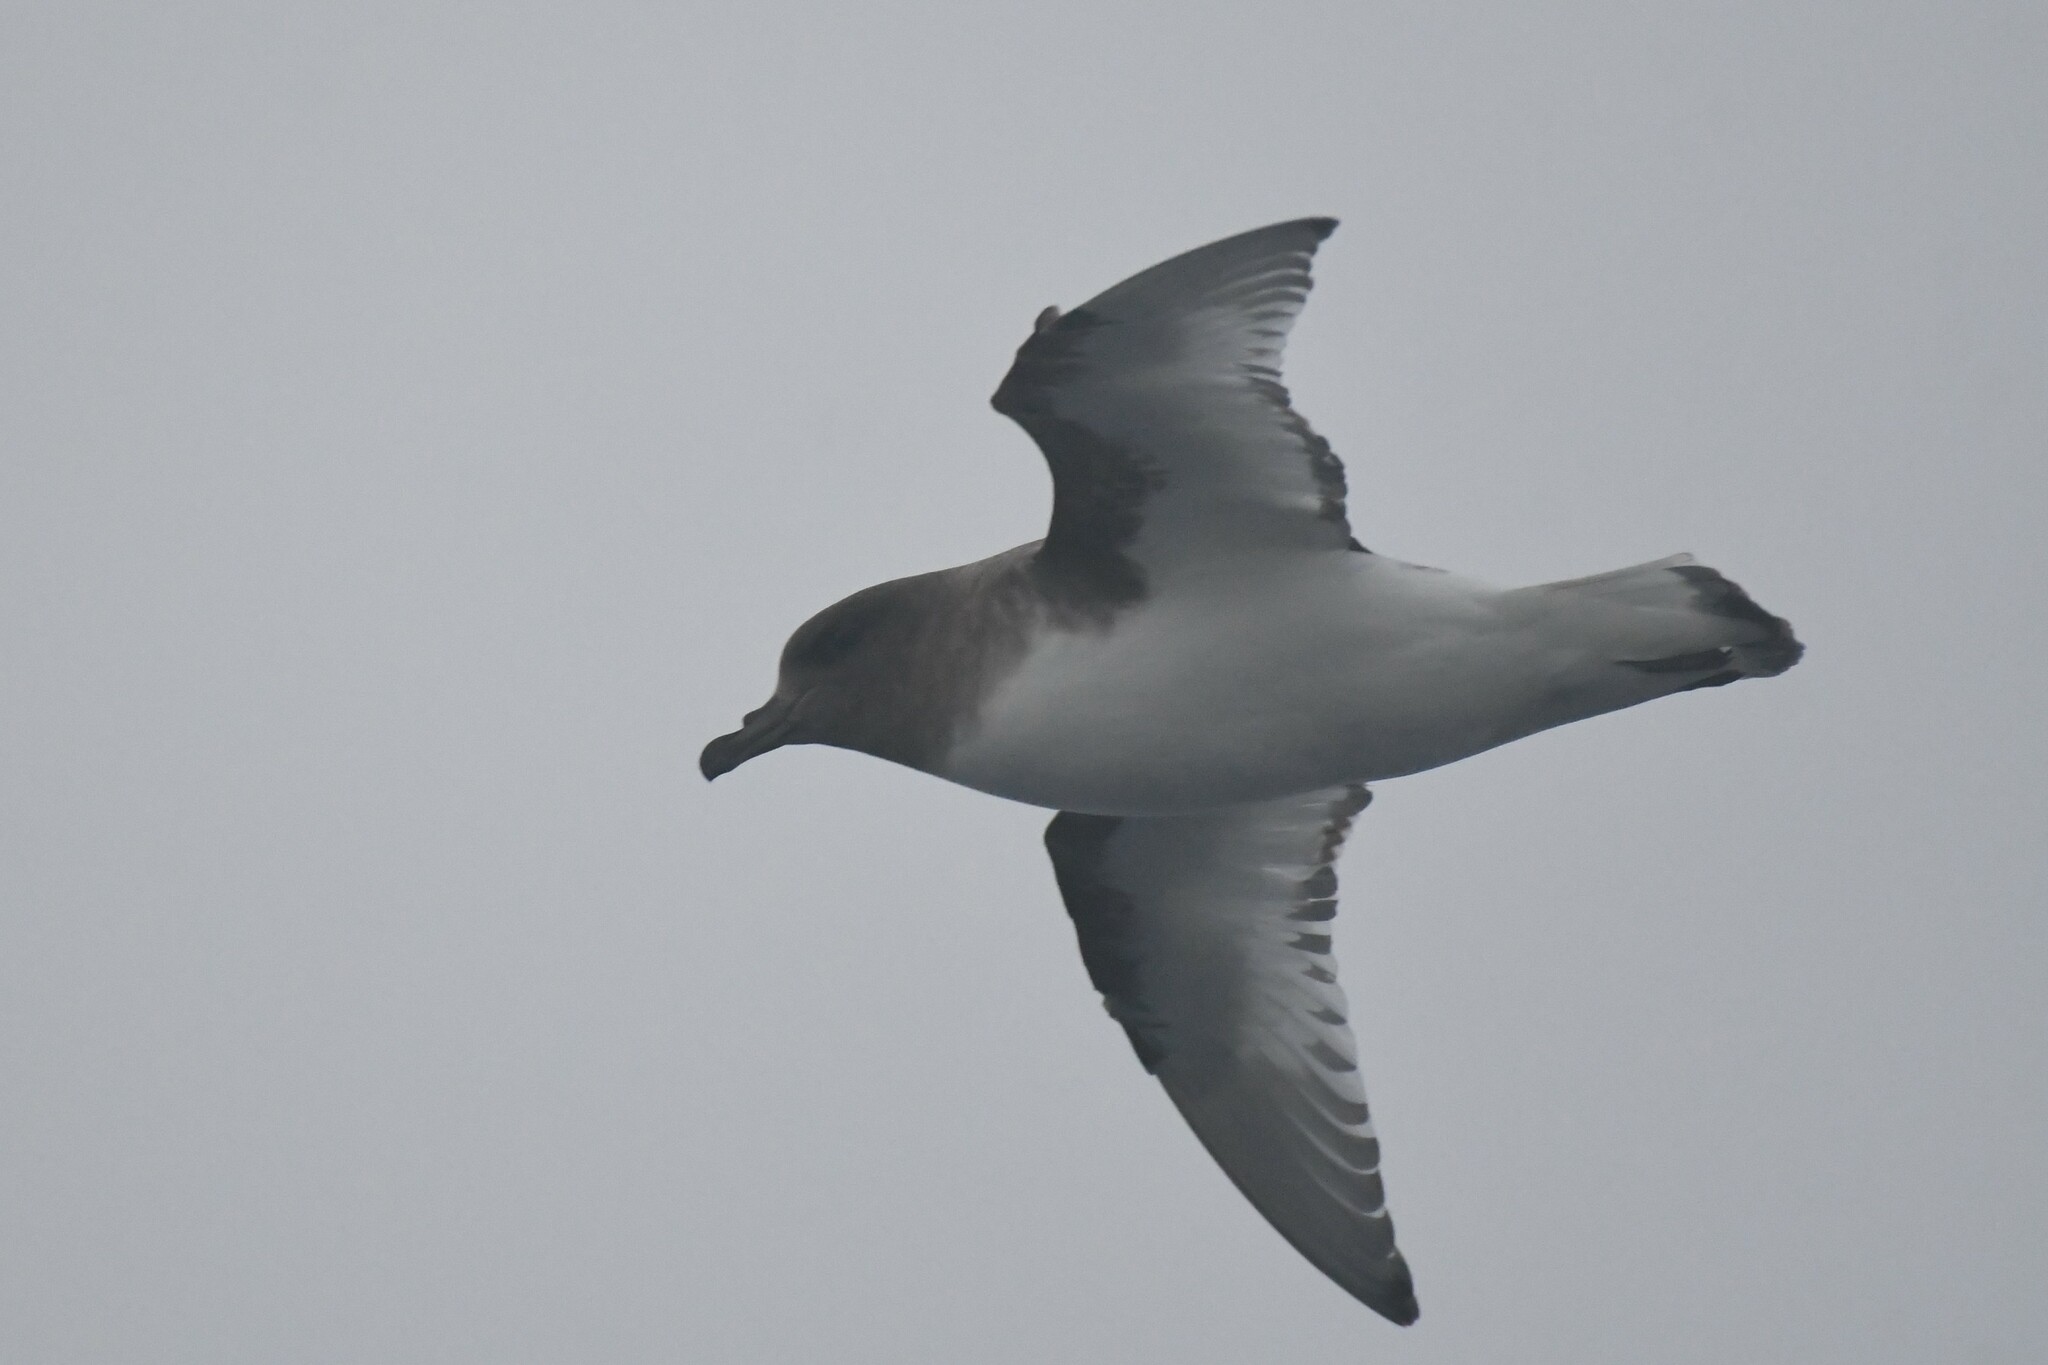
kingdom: Animalia
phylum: Chordata
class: Aves
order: Procellariiformes
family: Procellariidae
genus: Thalassoica
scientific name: Thalassoica antarctica
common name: Antarctic petrel
